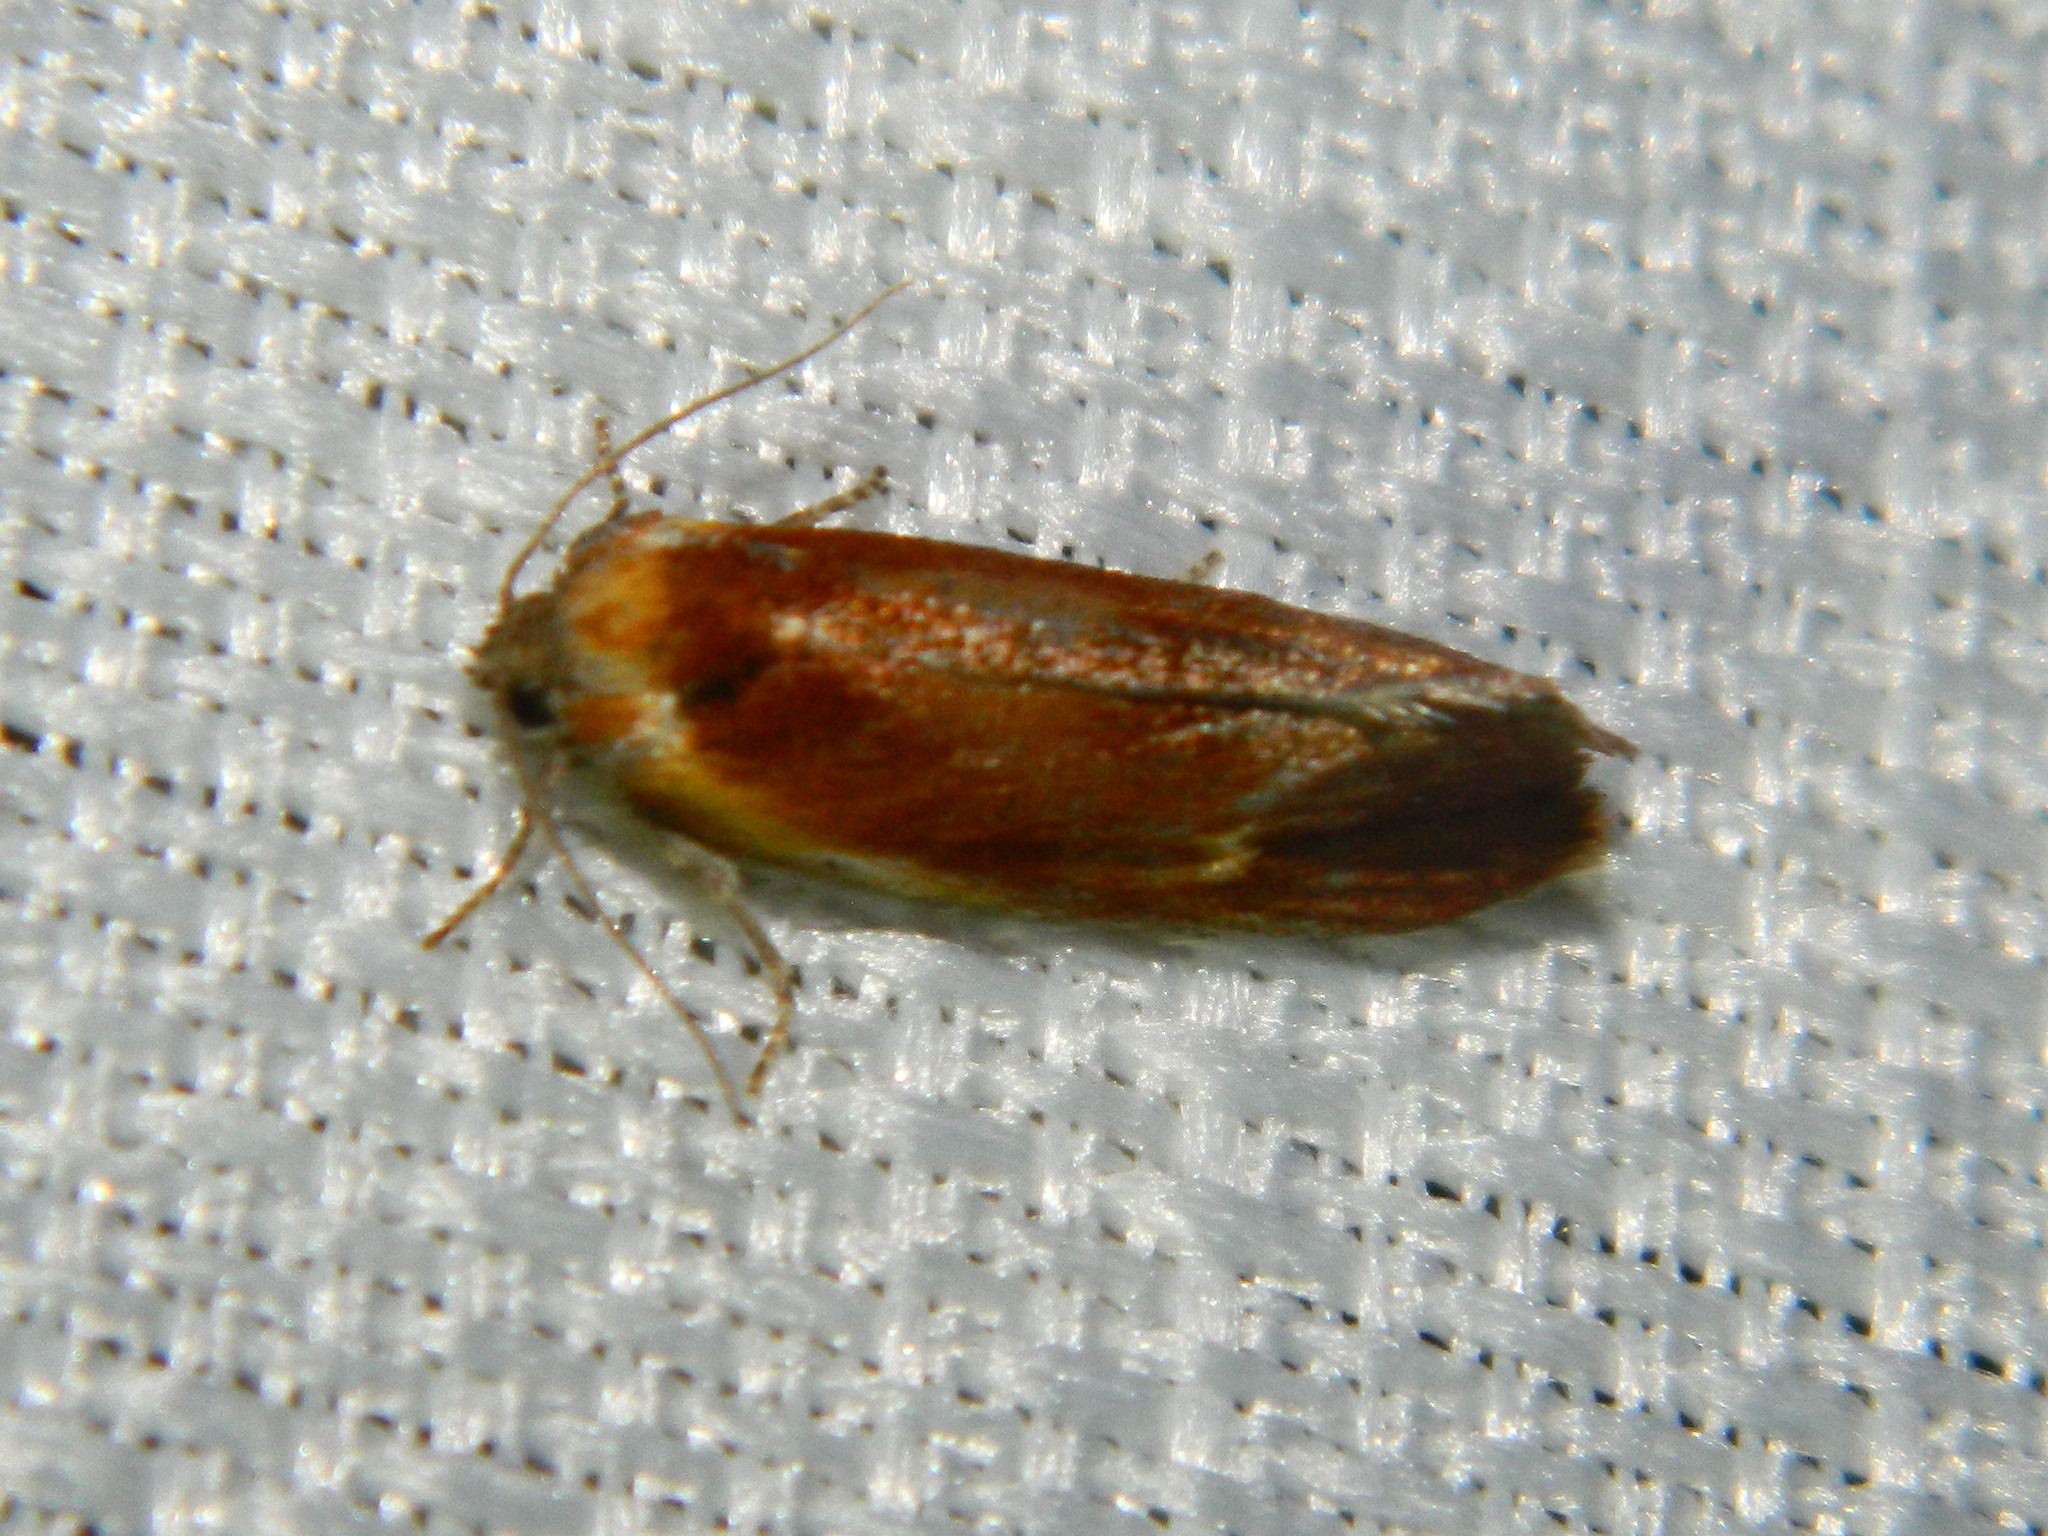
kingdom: Animalia
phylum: Arthropoda
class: Insecta
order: Lepidoptera
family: Tortricidae
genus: Eulia
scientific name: Eulia ministrana
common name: Brassy twist
